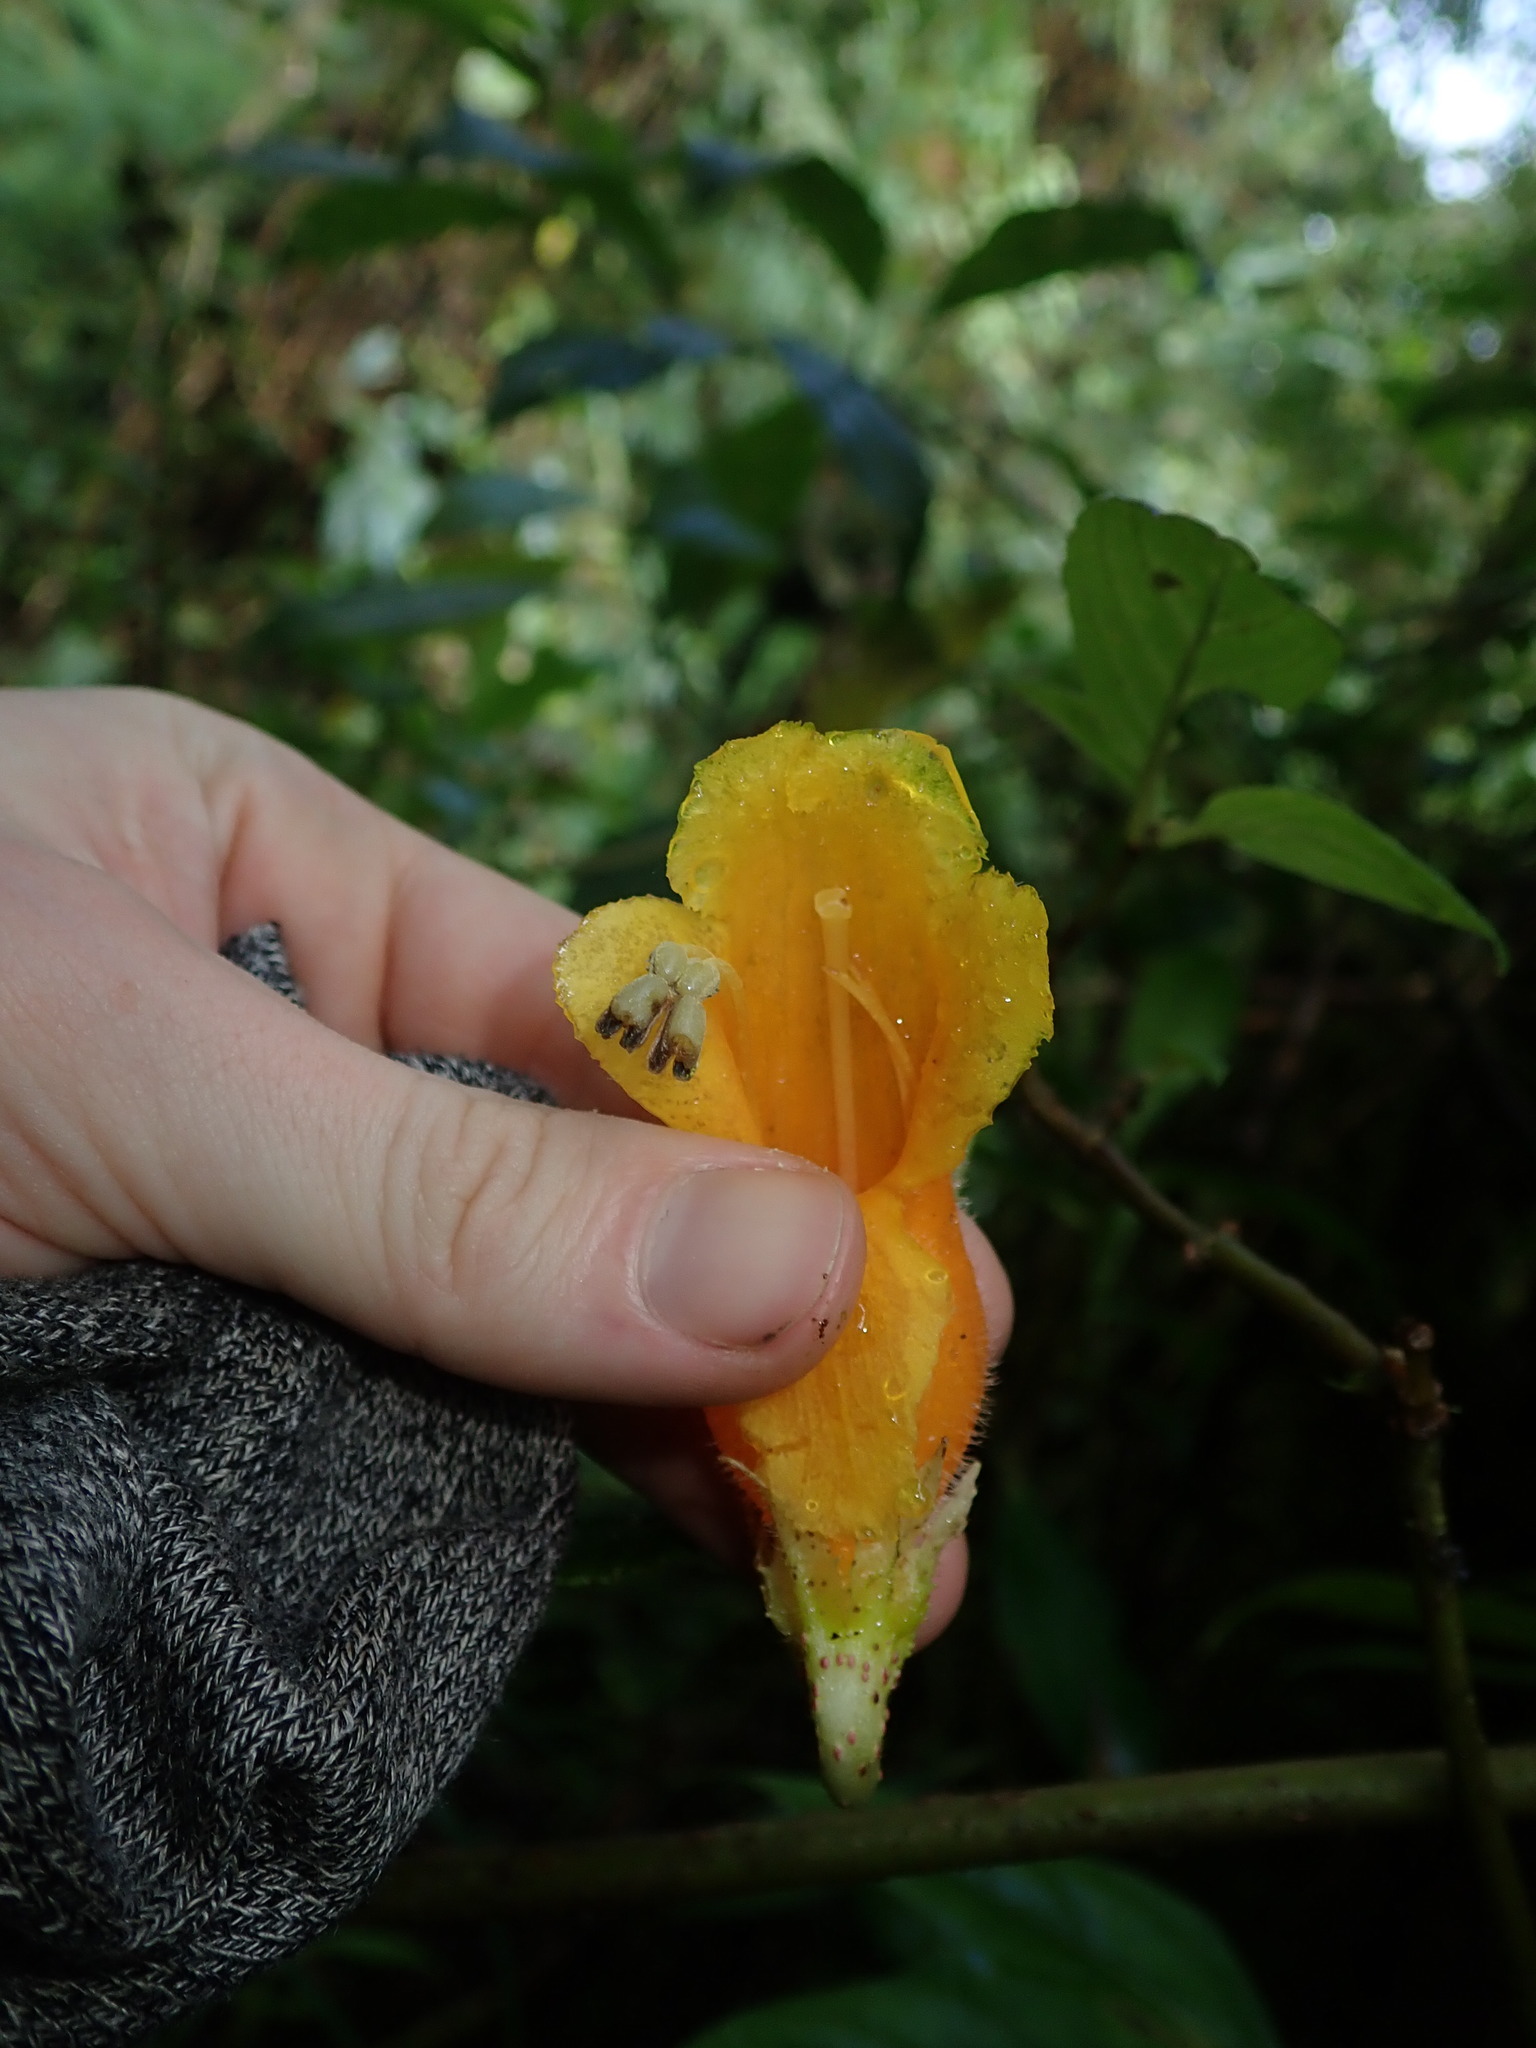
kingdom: Plantae
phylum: Tracheophyta
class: Magnoliopsida
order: Lamiales
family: Gesneriaceae
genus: Columnea
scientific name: Columnea strigosa
